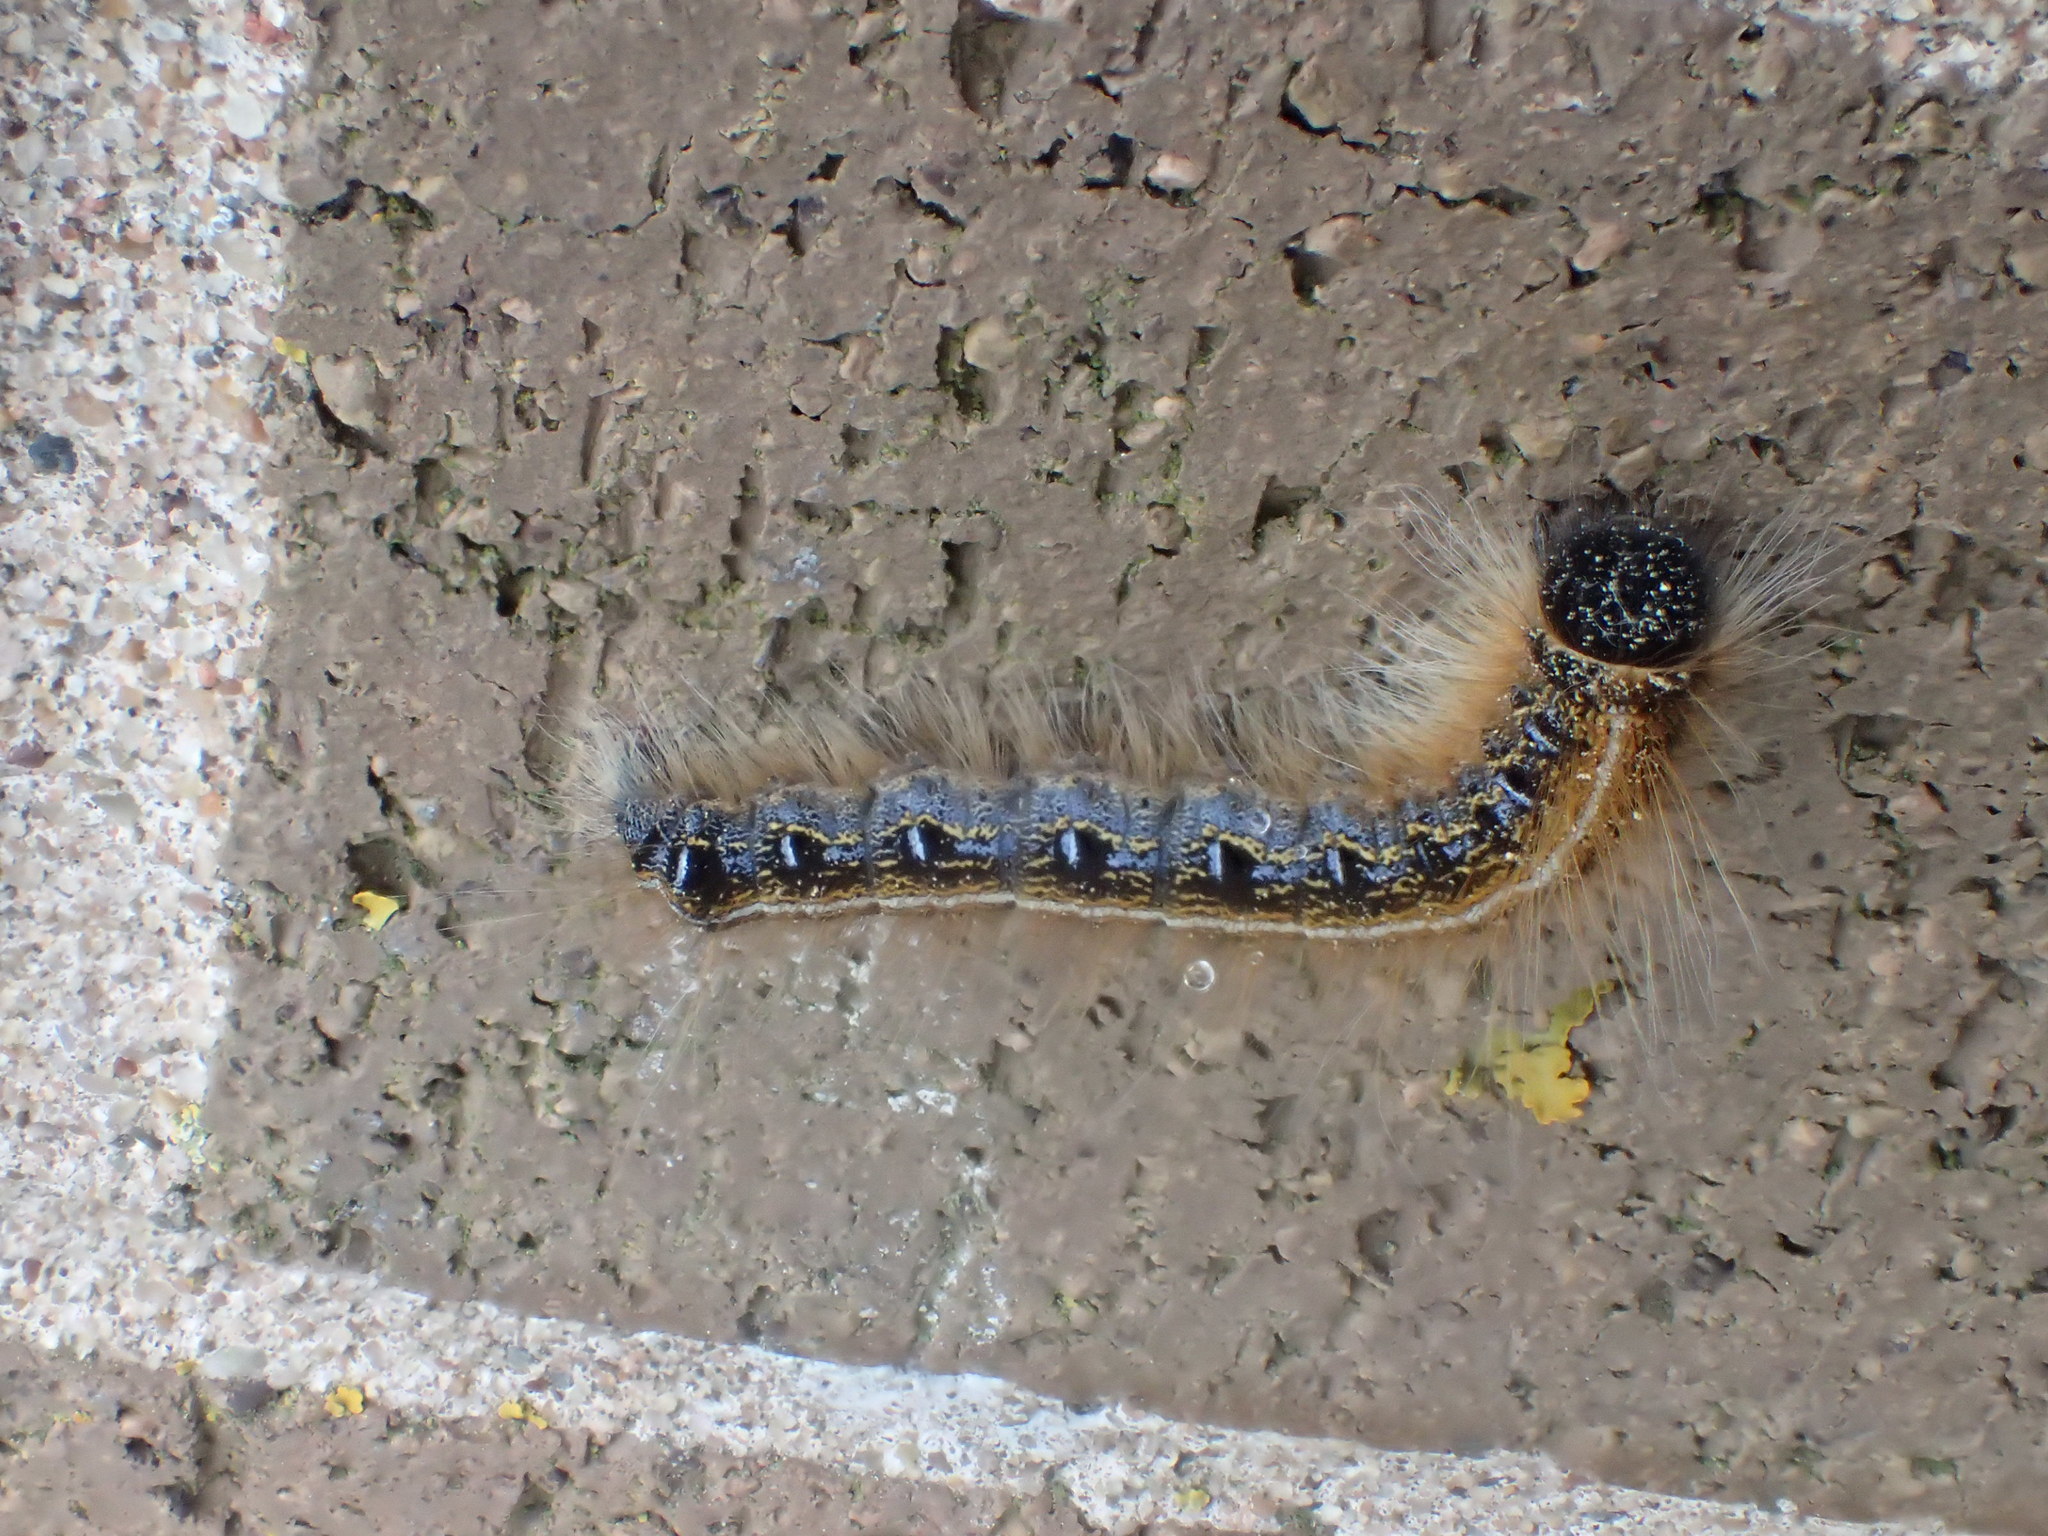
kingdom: Animalia
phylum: Arthropoda
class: Insecta
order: Lepidoptera
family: Lasiocampidae
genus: Malacosoma
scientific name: Malacosoma americana
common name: Eastern tent caterpillar moth
